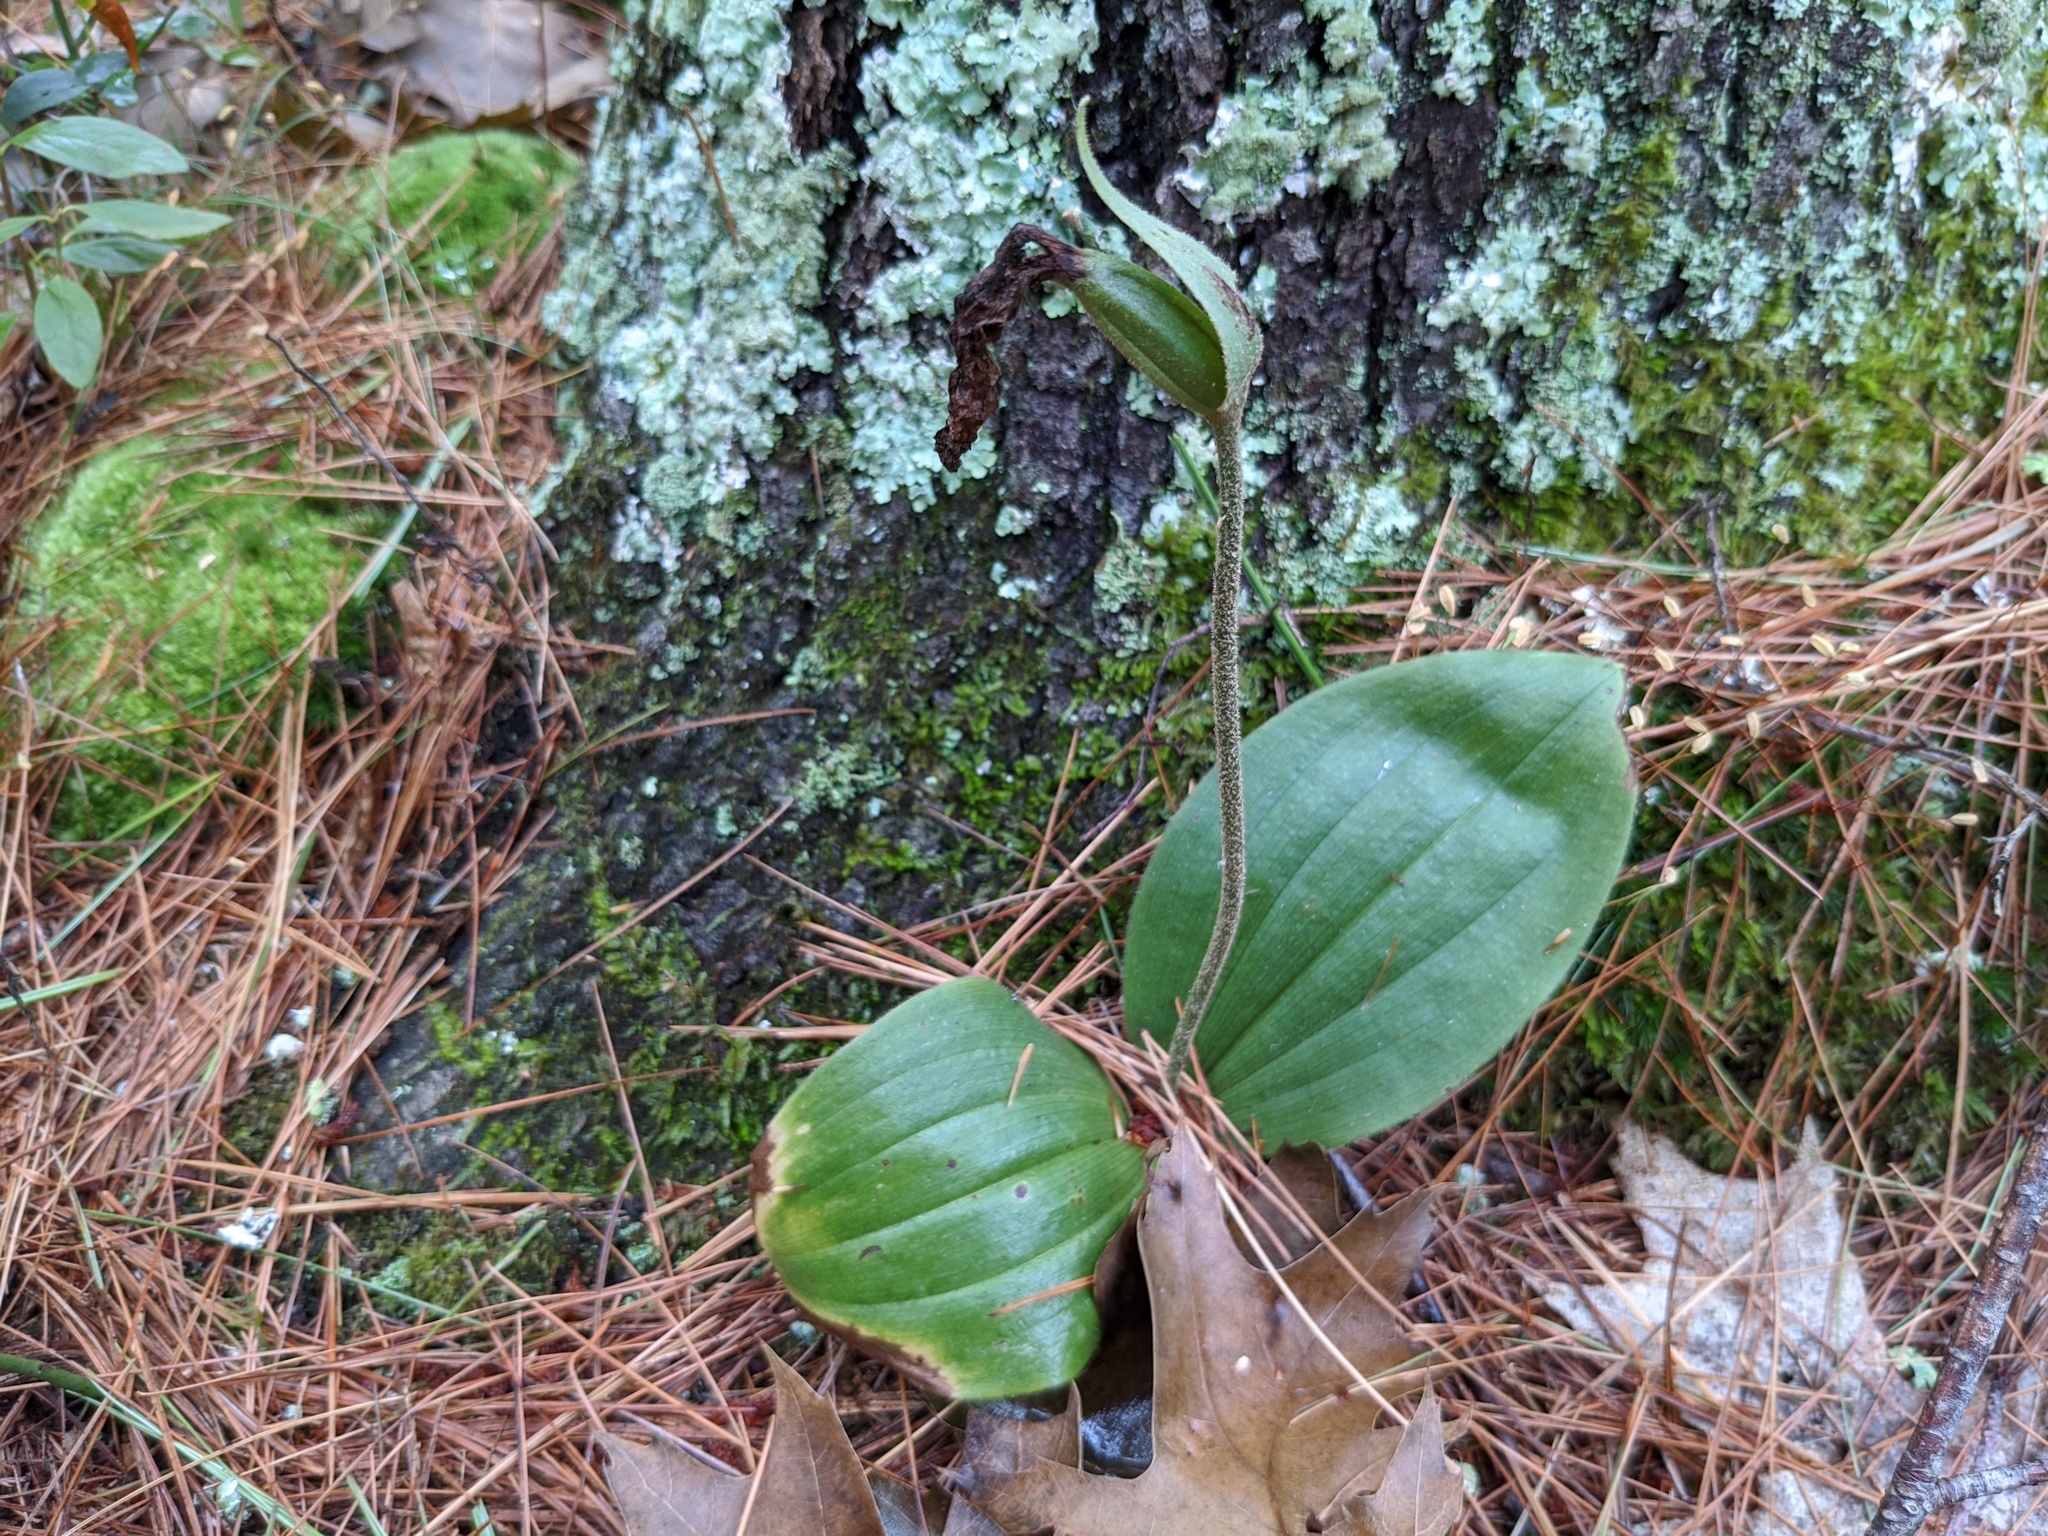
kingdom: Plantae
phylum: Tracheophyta
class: Liliopsida
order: Asparagales
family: Orchidaceae
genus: Cypripedium
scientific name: Cypripedium acaule
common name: Pink lady's-slipper
